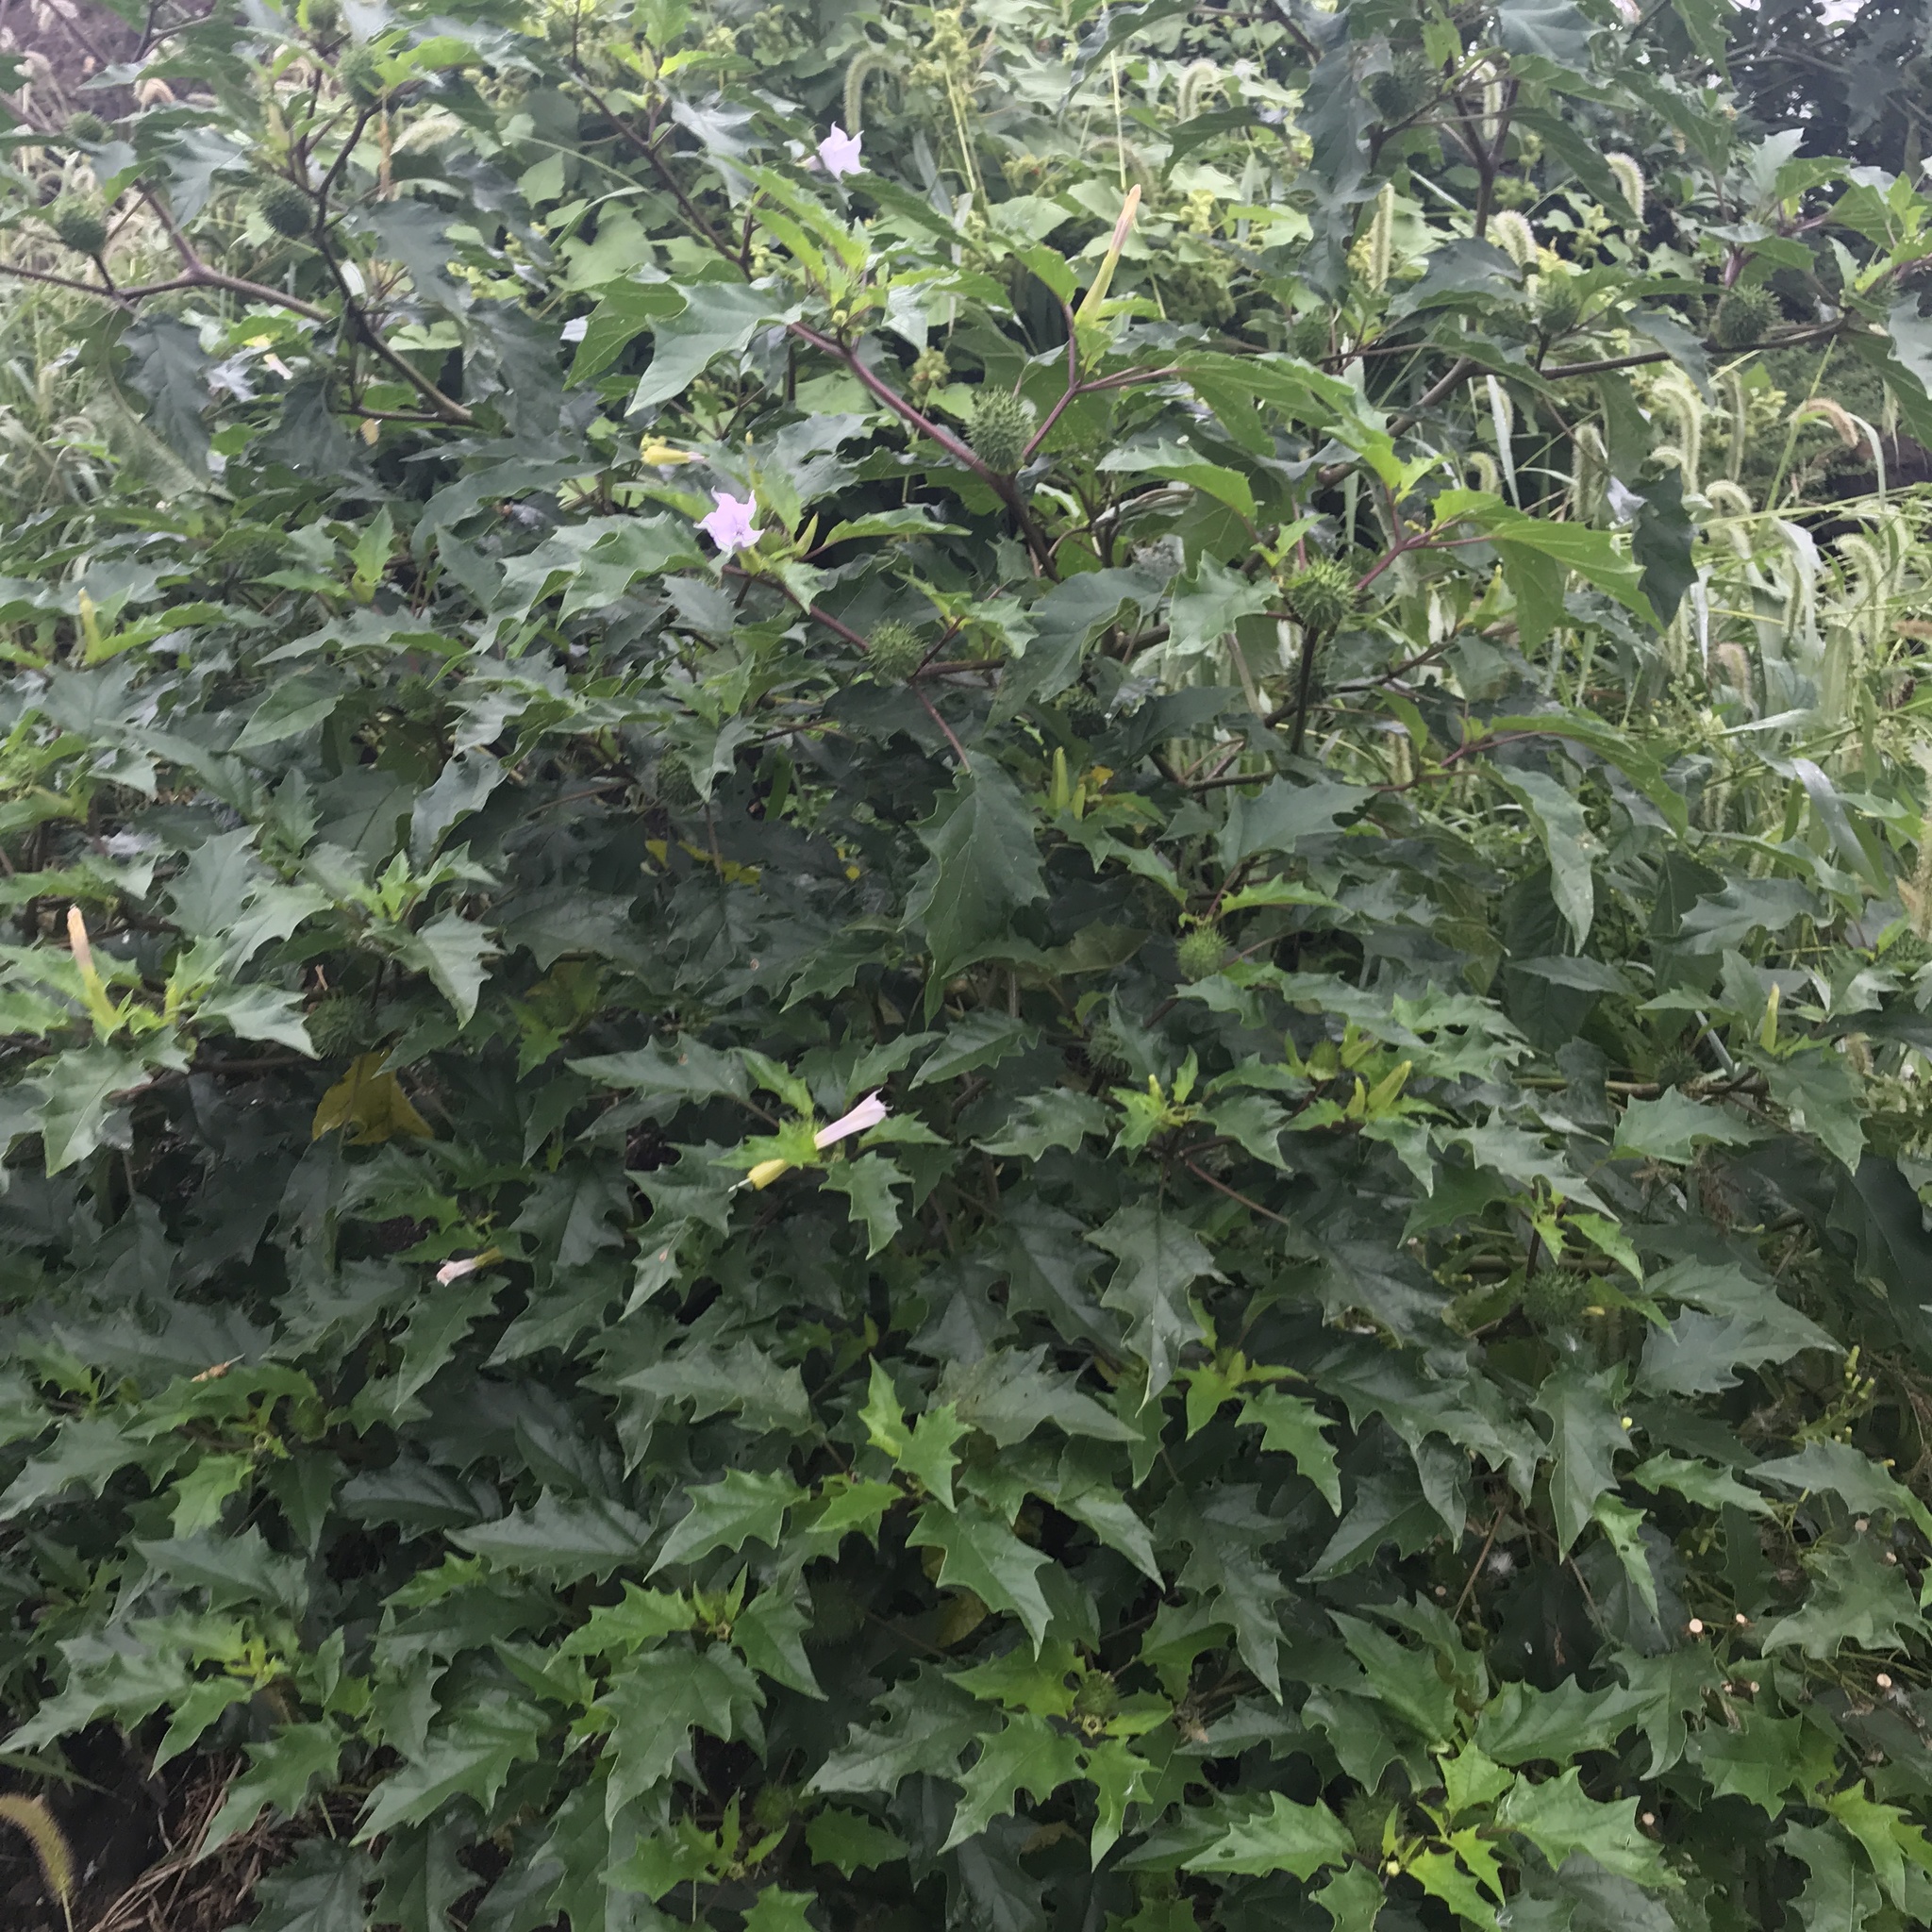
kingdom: Plantae
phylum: Tracheophyta
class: Magnoliopsida
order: Solanales
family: Solanaceae
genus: Datura
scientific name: Datura stramonium
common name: Thorn-apple
